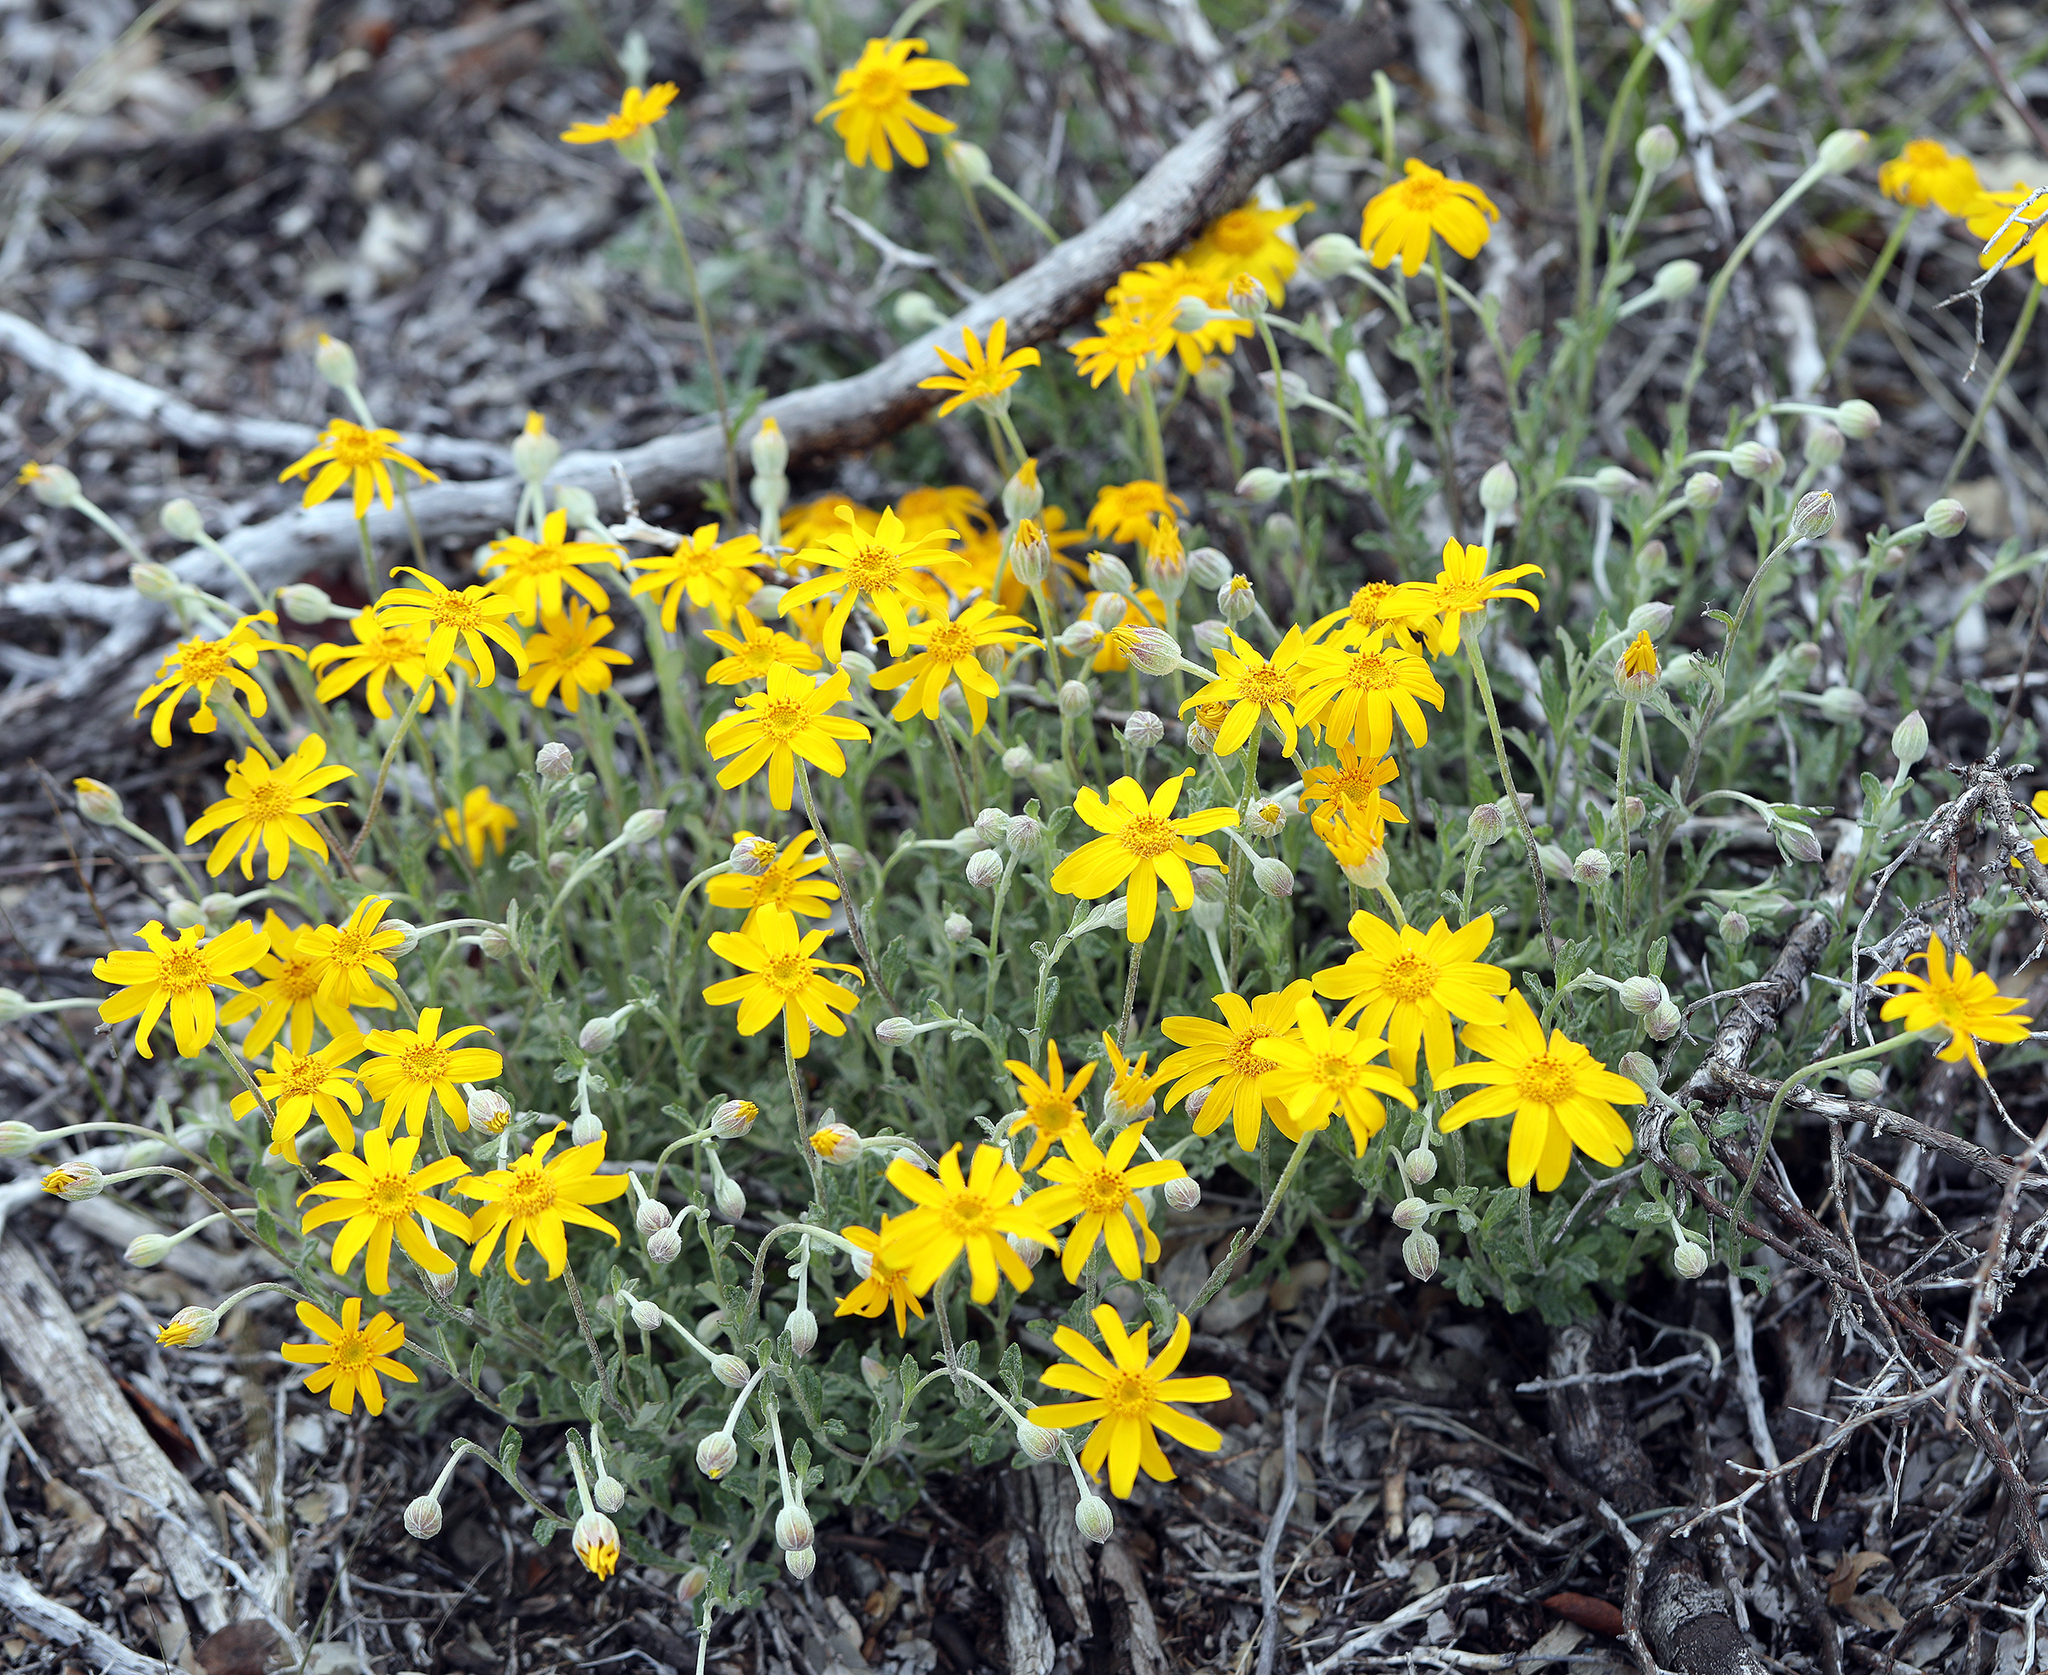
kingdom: Plantae
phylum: Tracheophyta
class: Magnoliopsida
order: Asterales
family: Asteraceae
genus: Eriophyllum
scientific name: Eriophyllum lanatum
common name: Common woolly-sunflower
